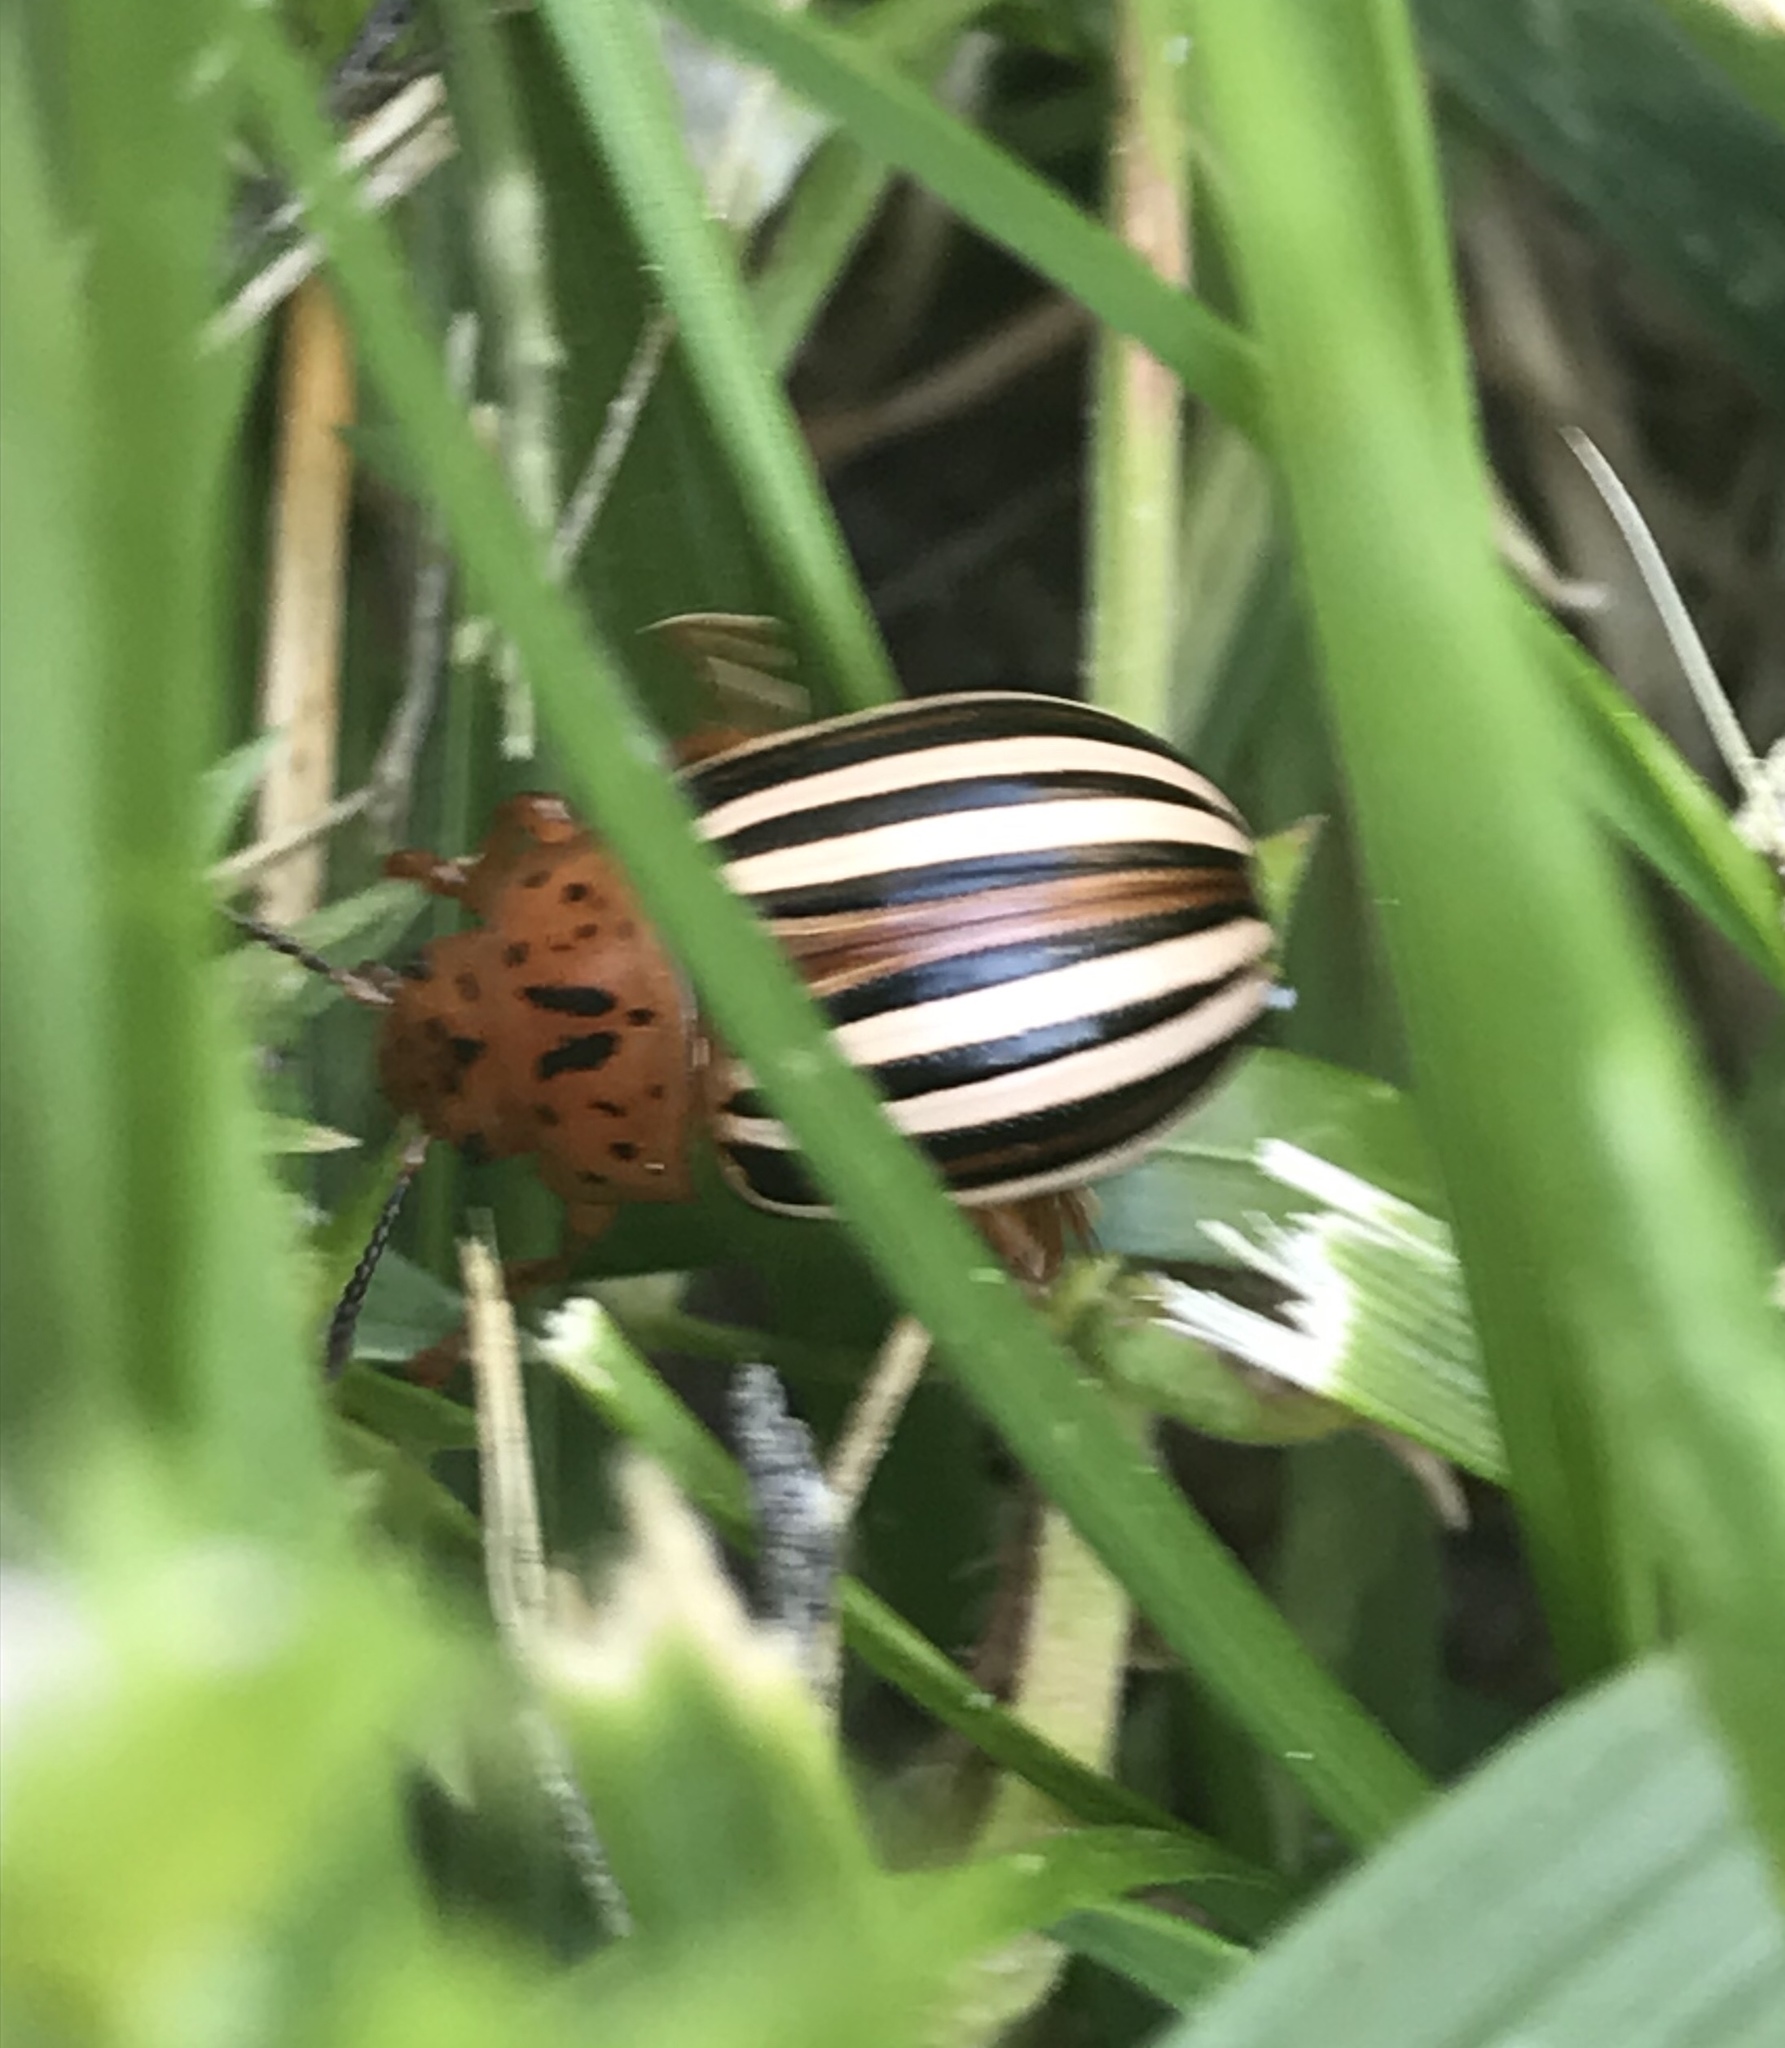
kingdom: Animalia
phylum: Arthropoda
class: Insecta
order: Coleoptera
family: Chrysomelidae
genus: Leptinotarsa
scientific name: Leptinotarsa juncta
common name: False potato beetle
